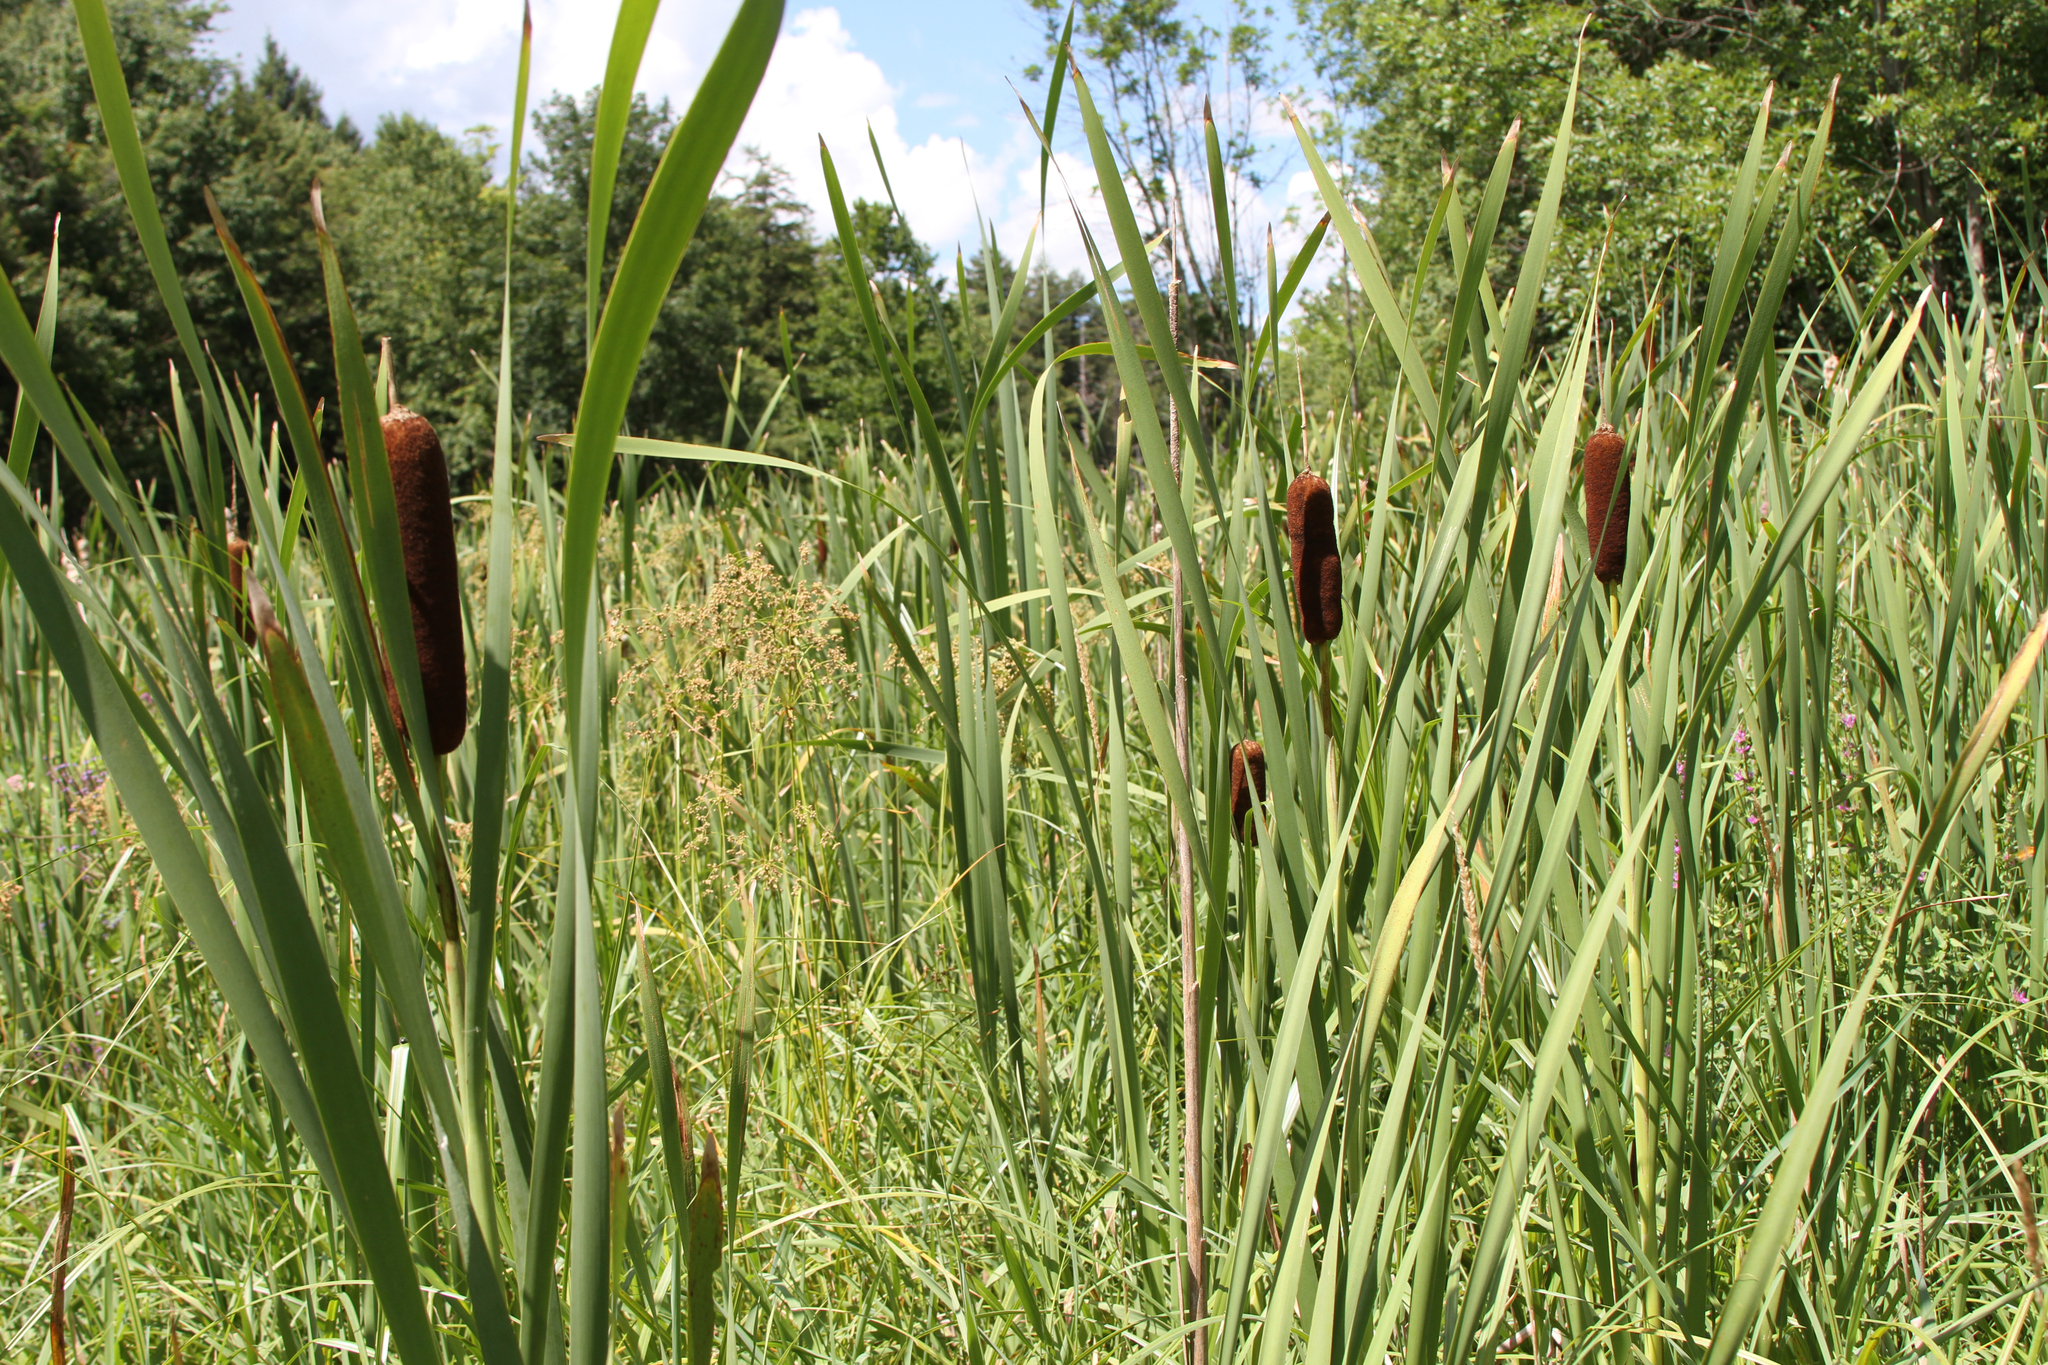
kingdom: Plantae
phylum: Tracheophyta
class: Liliopsida
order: Poales
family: Typhaceae
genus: Typha
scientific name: Typha latifolia
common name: Broadleaf cattail
